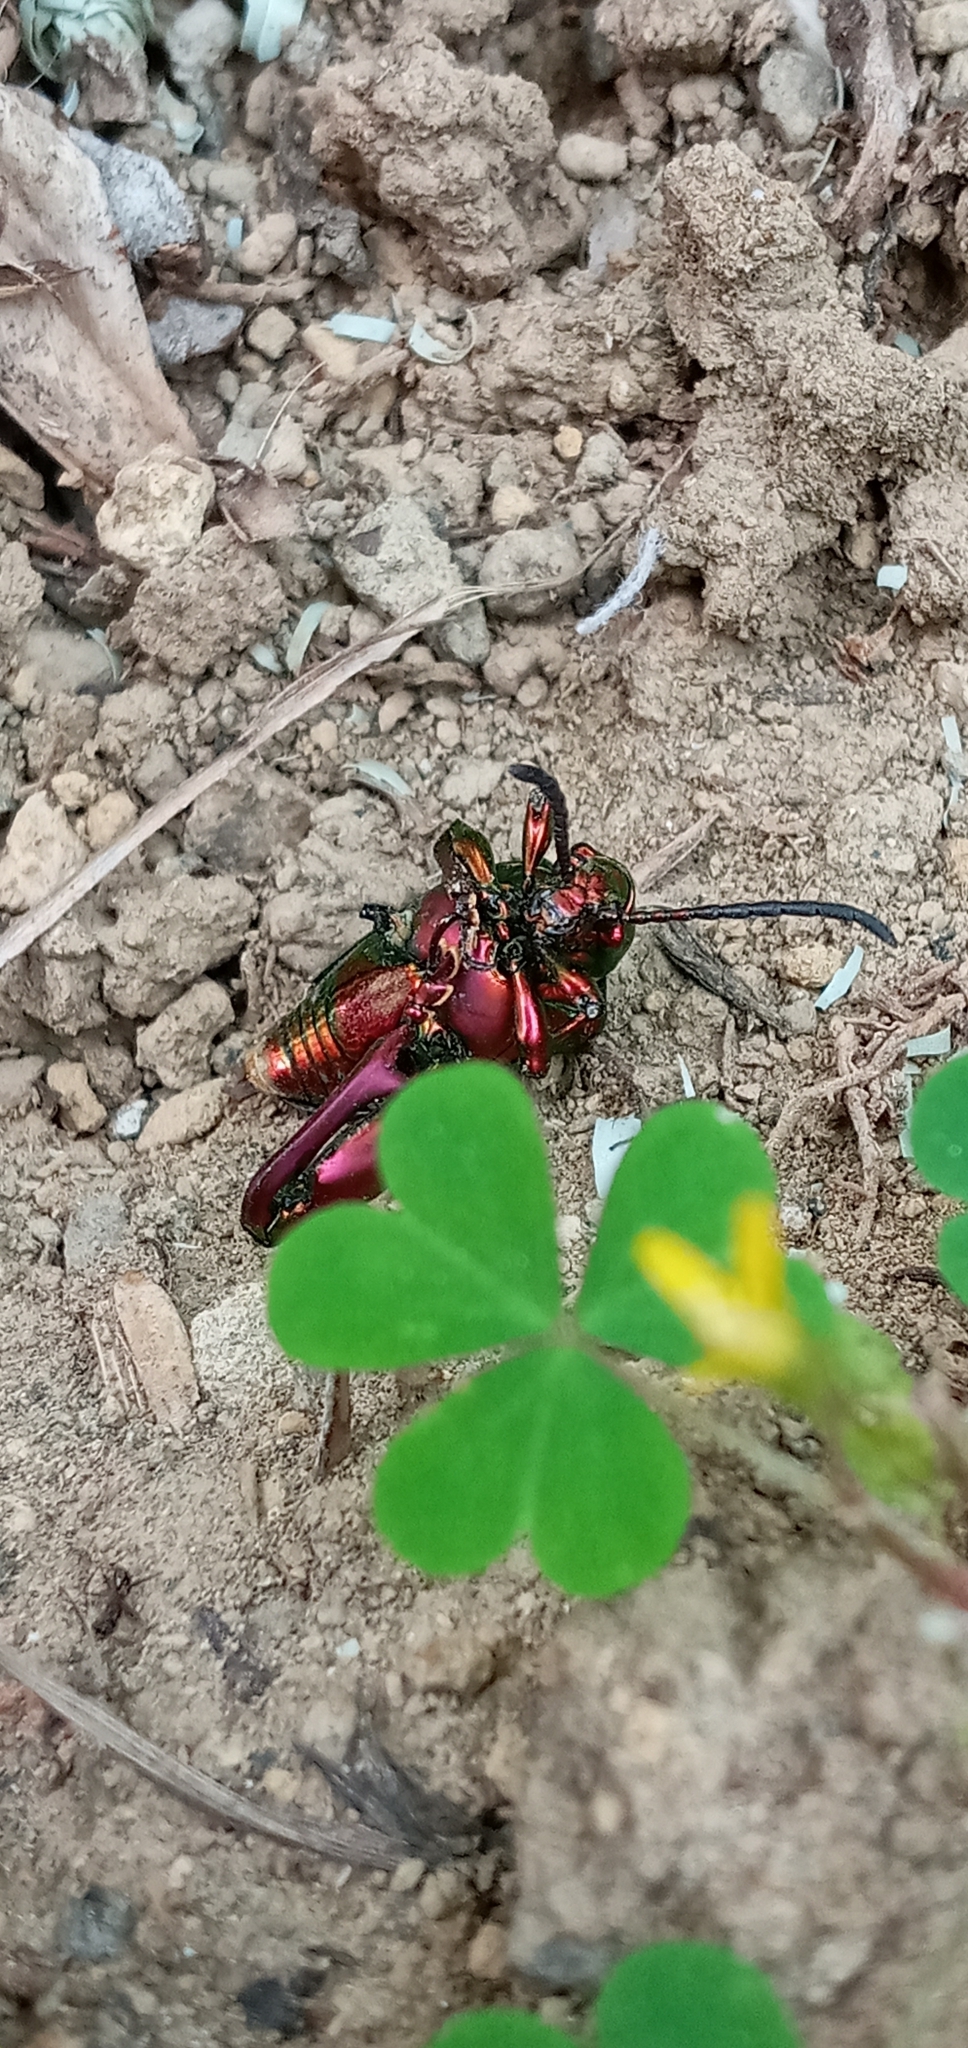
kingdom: Animalia
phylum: Arthropoda
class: Insecta
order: Coleoptera
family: Chrysomelidae
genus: Sagra
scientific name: Sagra femorata
